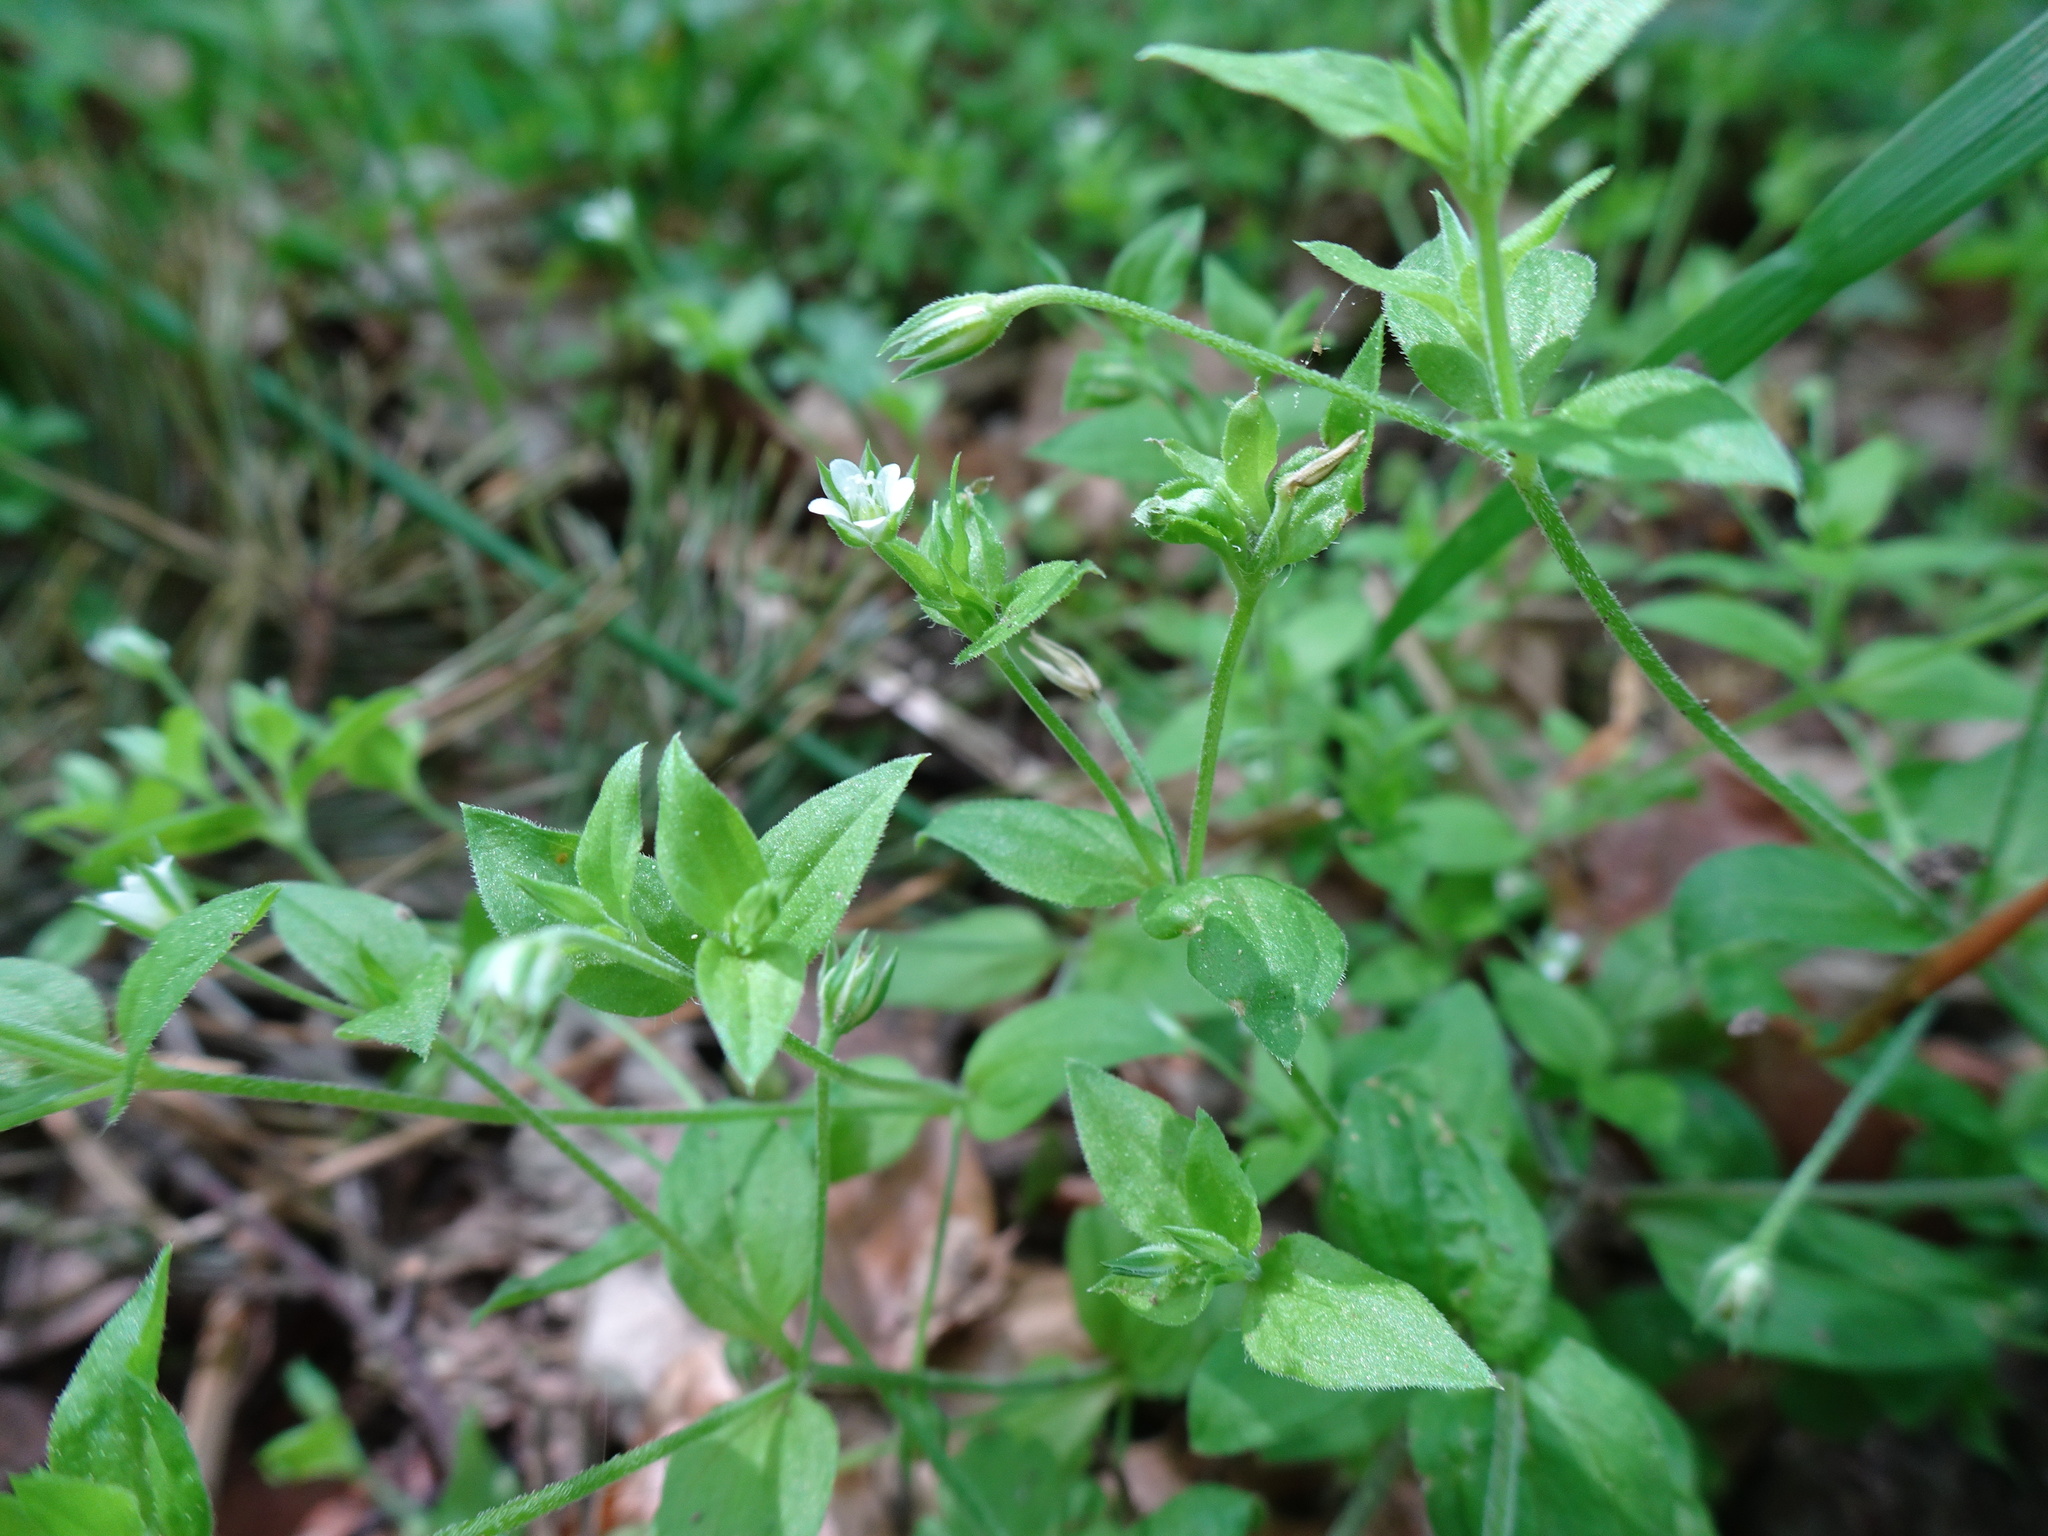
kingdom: Plantae
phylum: Tracheophyta
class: Magnoliopsida
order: Caryophyllales
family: Caryophyllaceae
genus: Moehringia
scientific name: Moehringia trinervia
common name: Three-nerved sandwort
